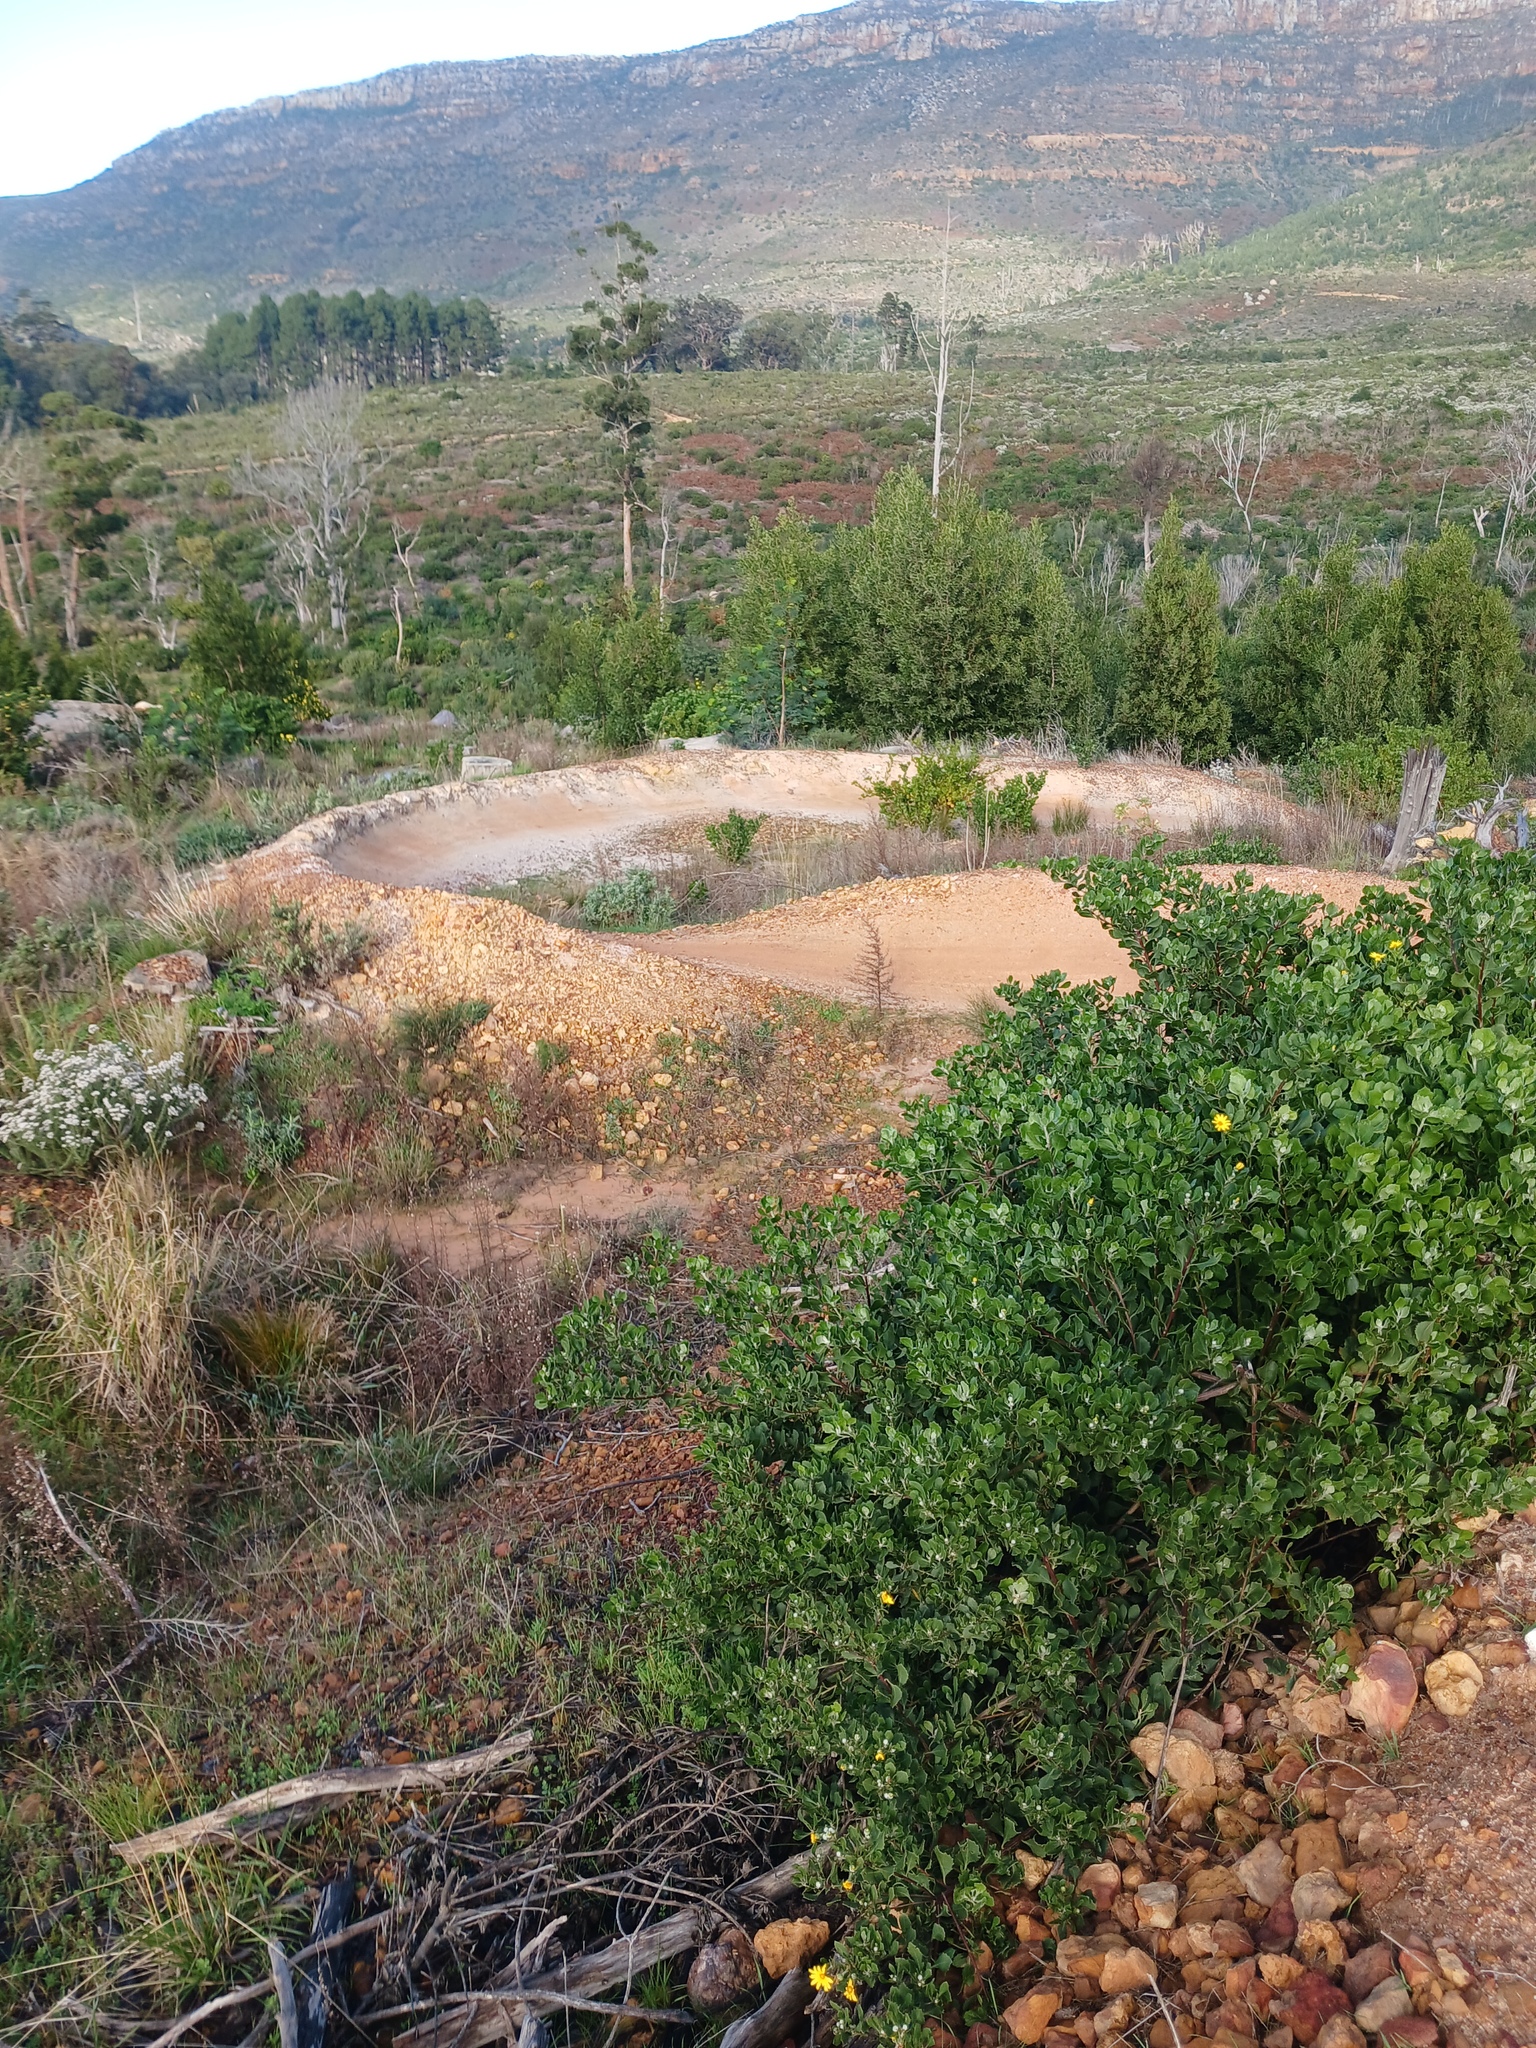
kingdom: Plantae
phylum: Tracheophyta
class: Magnoliopsida
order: Asterales
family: Asteraceae
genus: Osteospermum
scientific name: Osteospermum moniliferum
